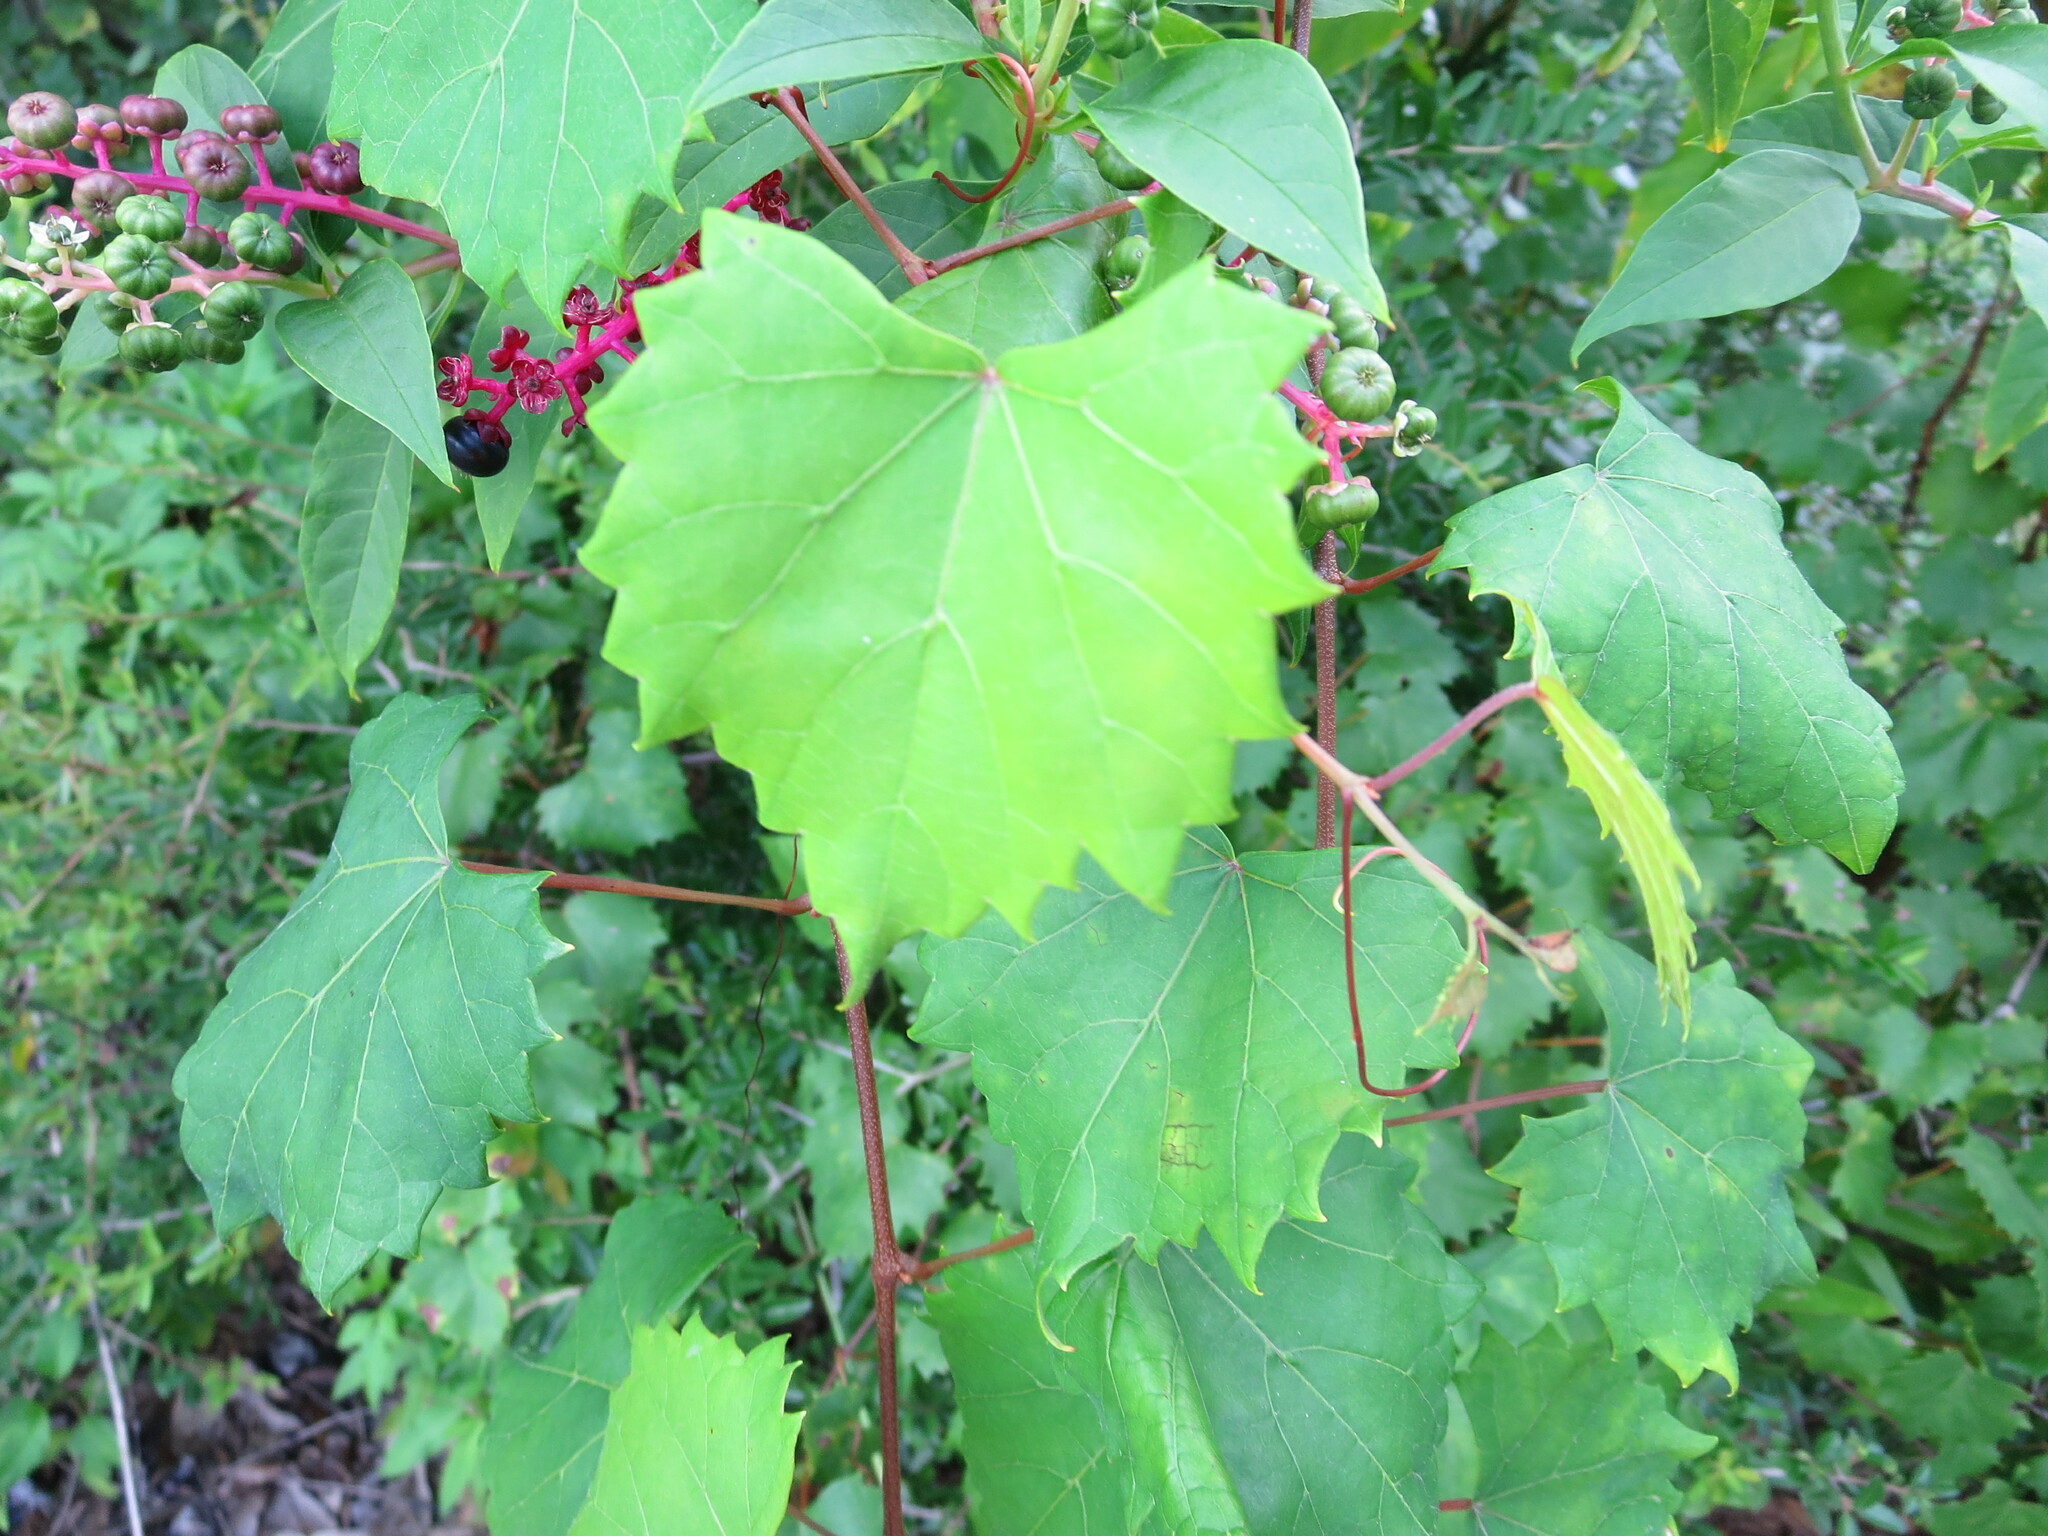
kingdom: Plantae
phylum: Tracheophyta
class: Magnoliopsida
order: Vitales
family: Vitaceae
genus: Vitis
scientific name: Vitis rotundifolia
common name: Muscadine grape
